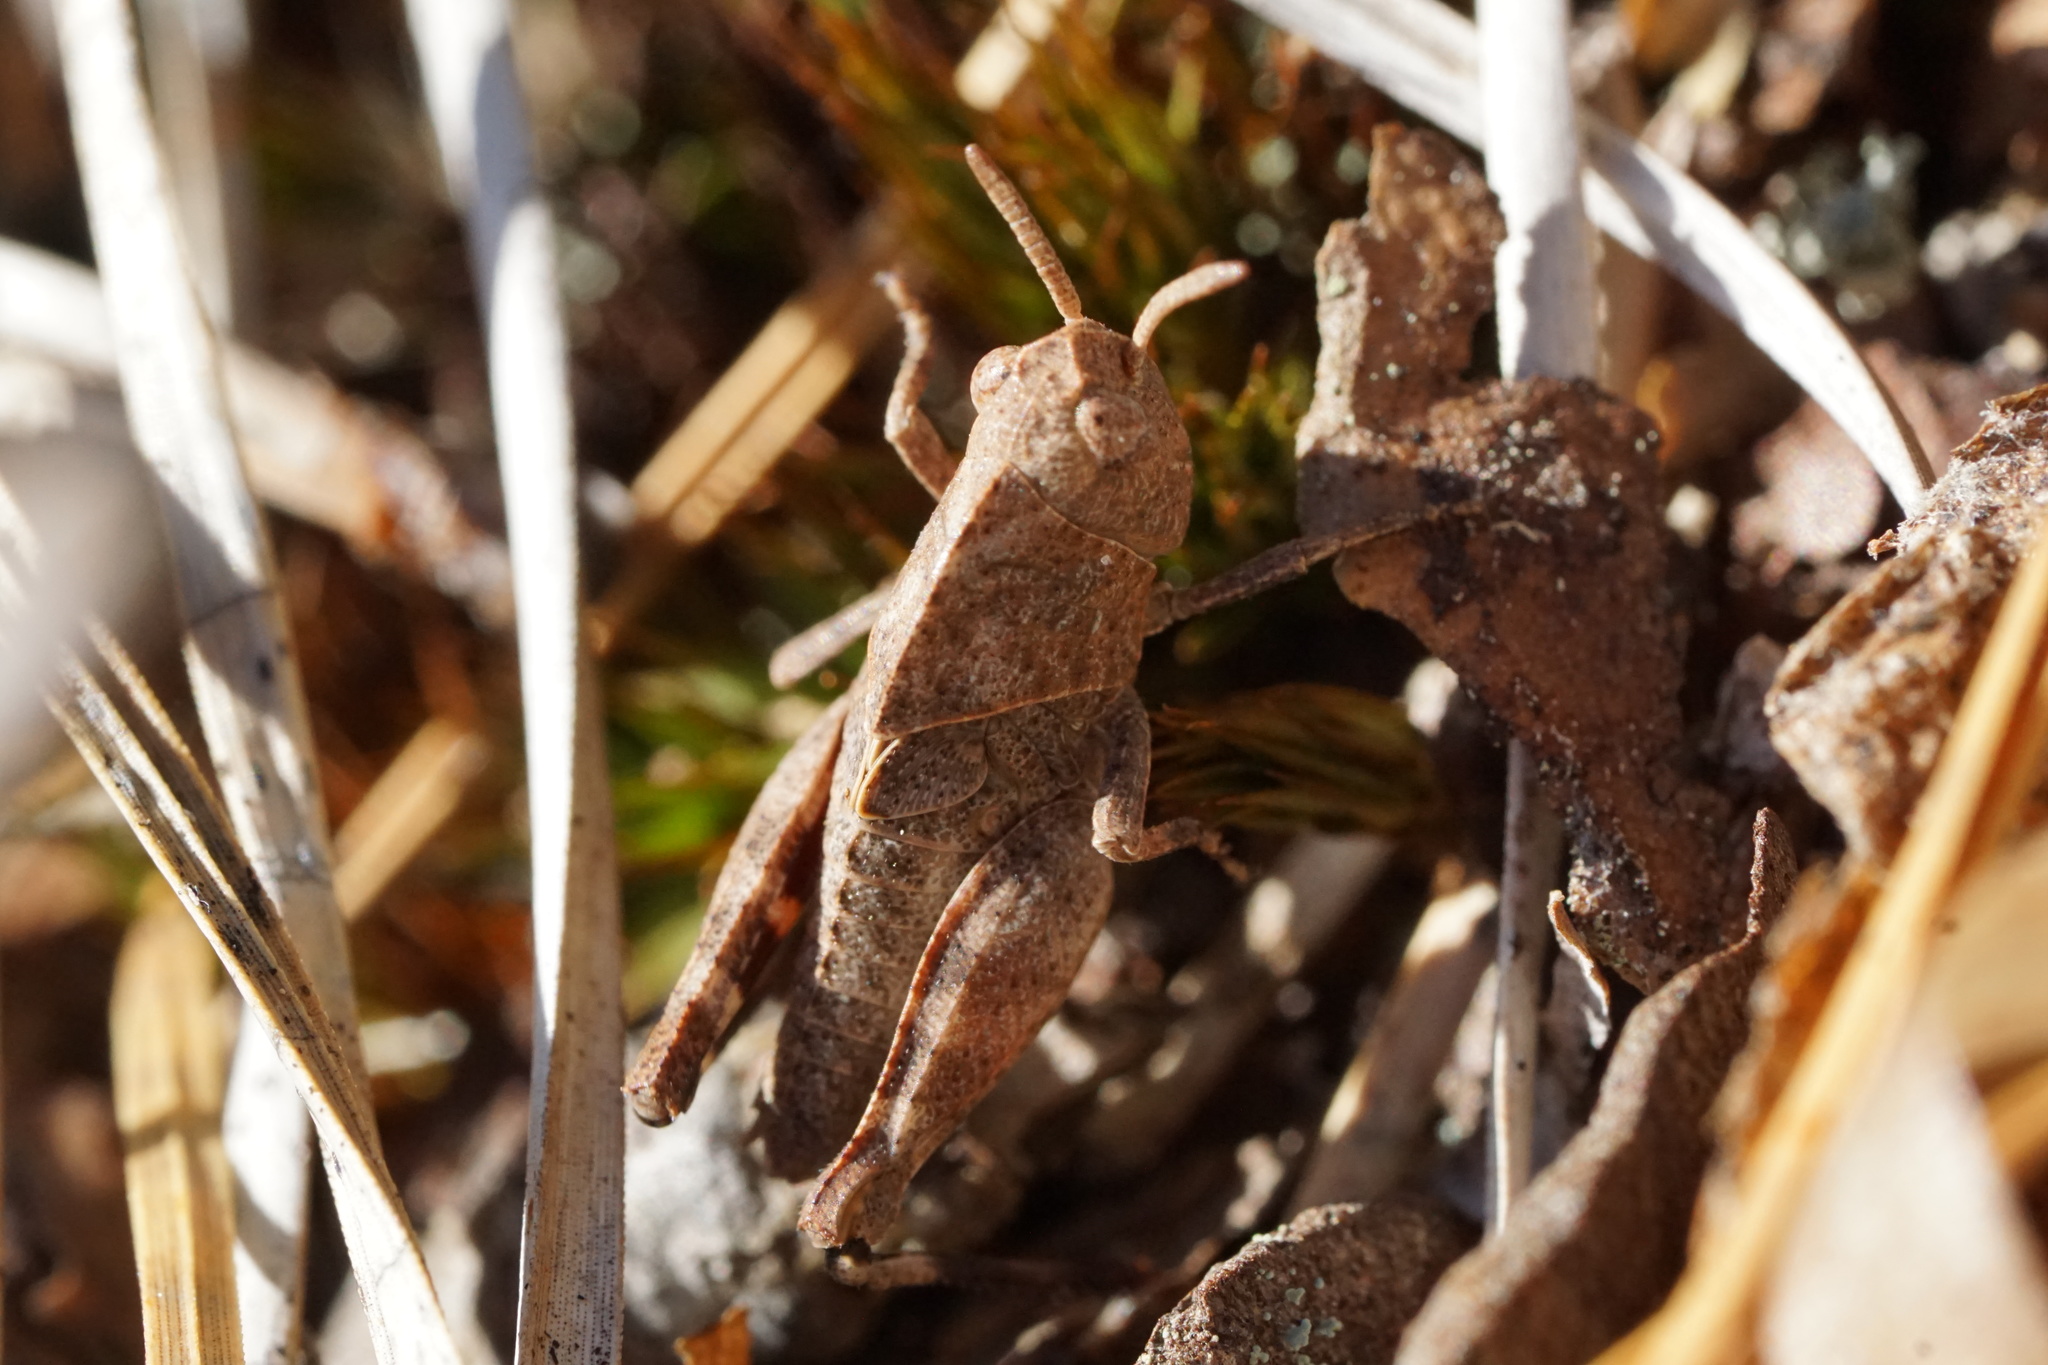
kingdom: Animalia
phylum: Arthropoda
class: Insecta
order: Orthoptera
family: Acrididae
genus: Arphia
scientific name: Arphia sulphurea
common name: Spring yellow-winged locust
